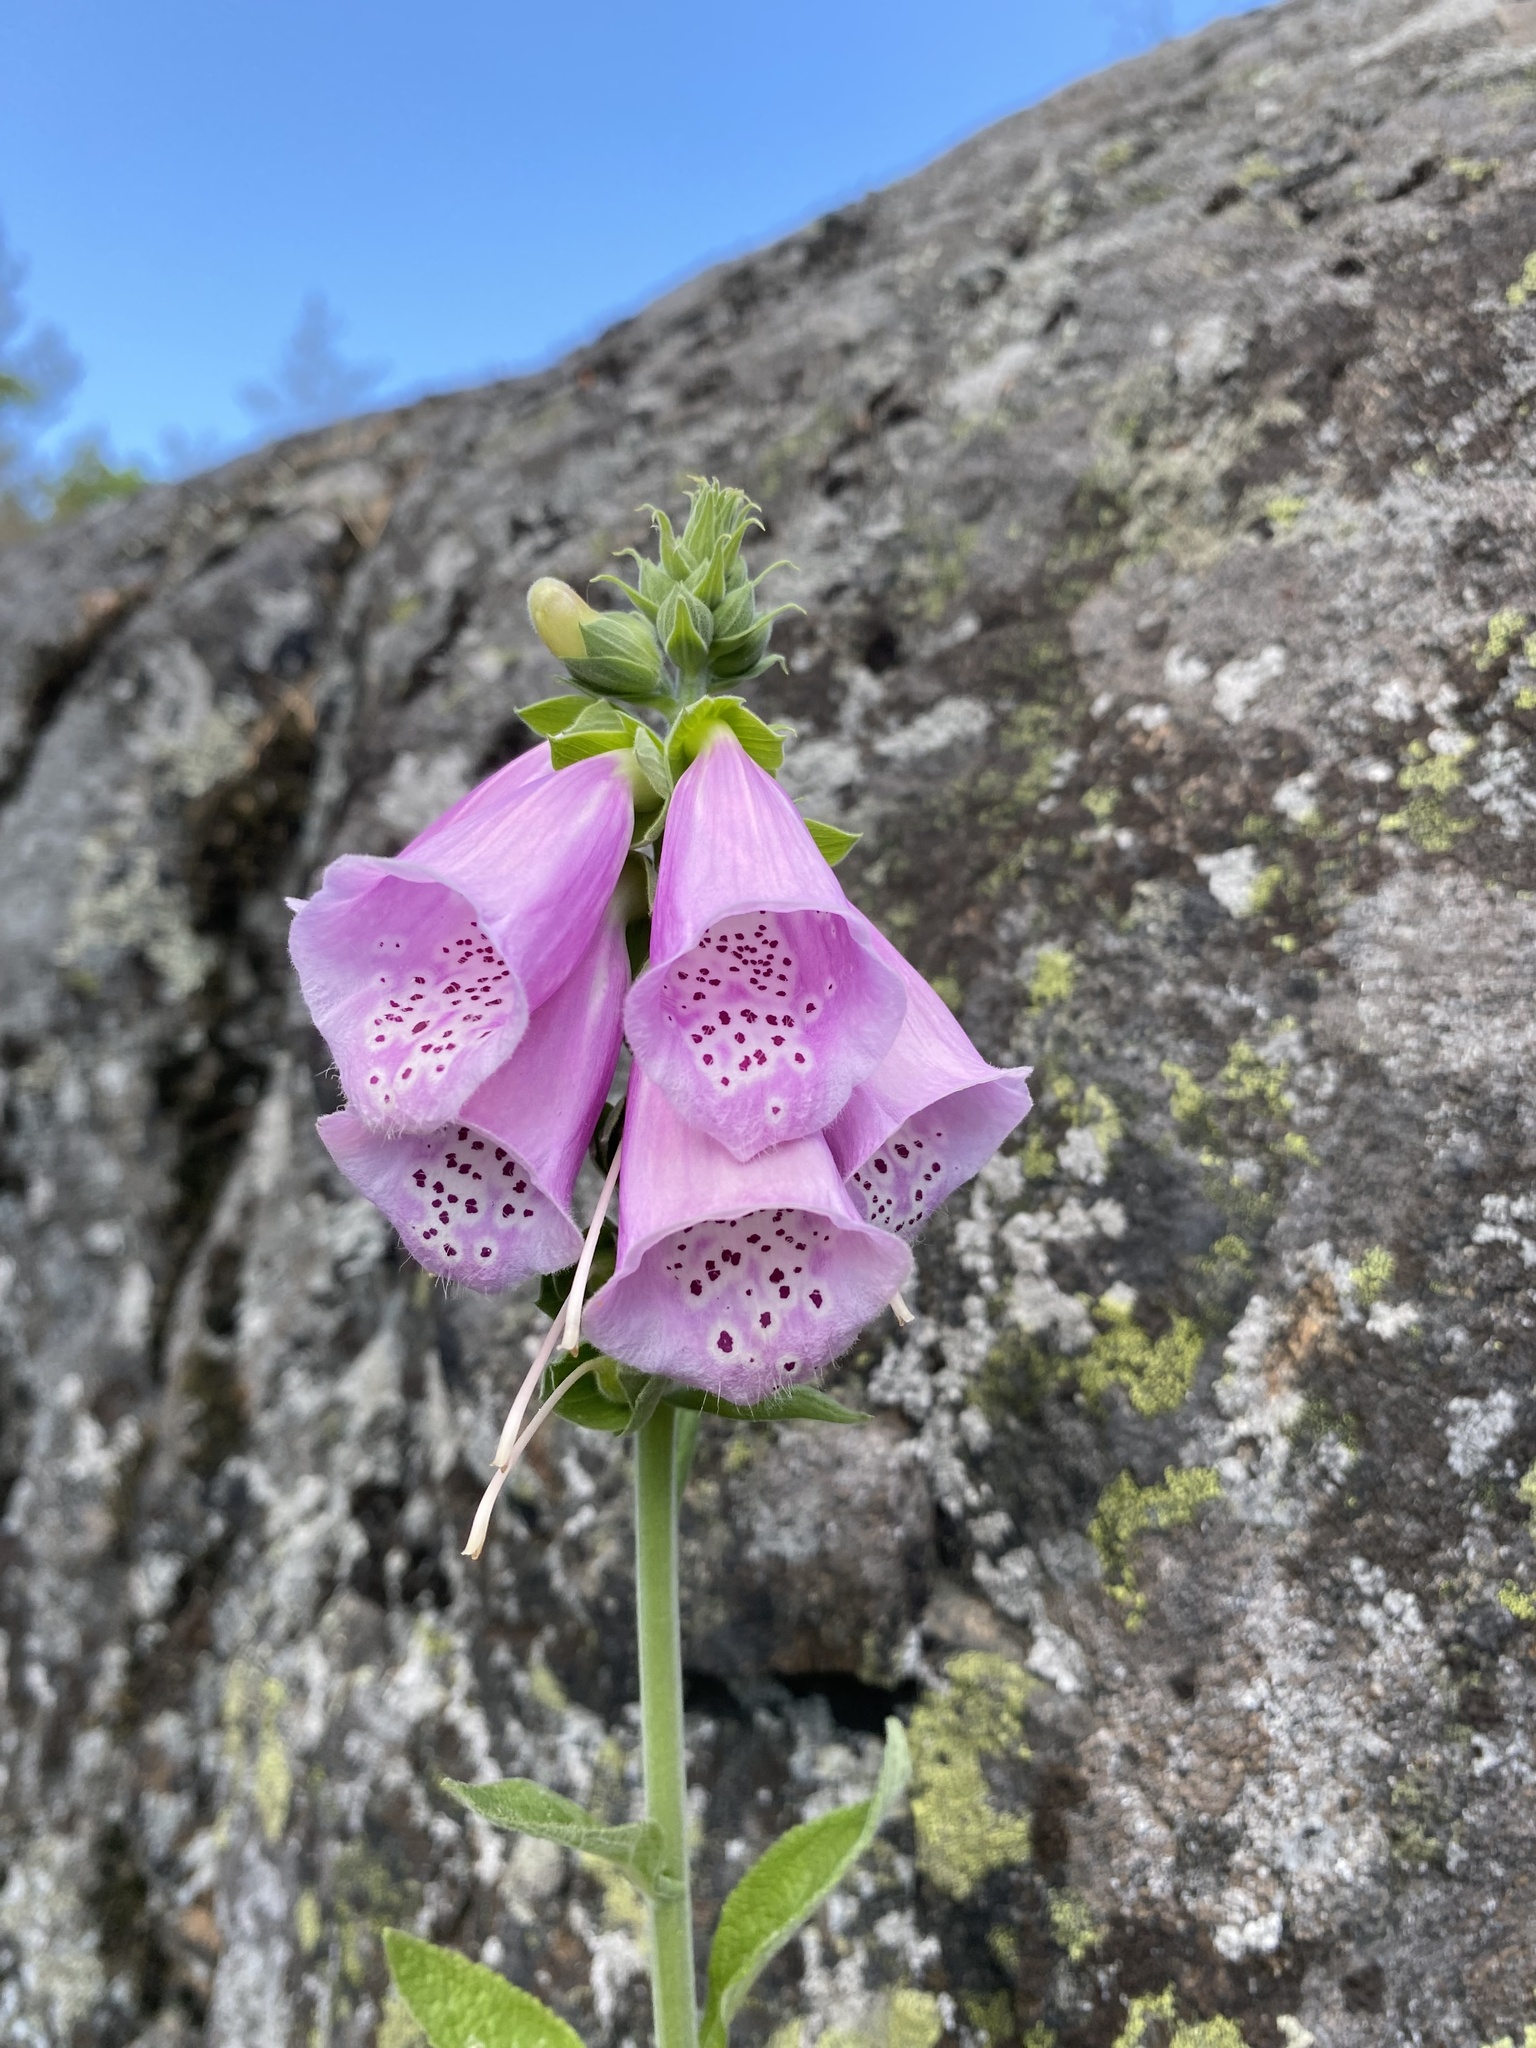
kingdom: Plantae
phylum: Tracheophyta
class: Magnoliopsida
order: Lamiales
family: Plantaginaceae
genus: Digitalis
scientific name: Digitalis purpurea
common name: Foxglove
